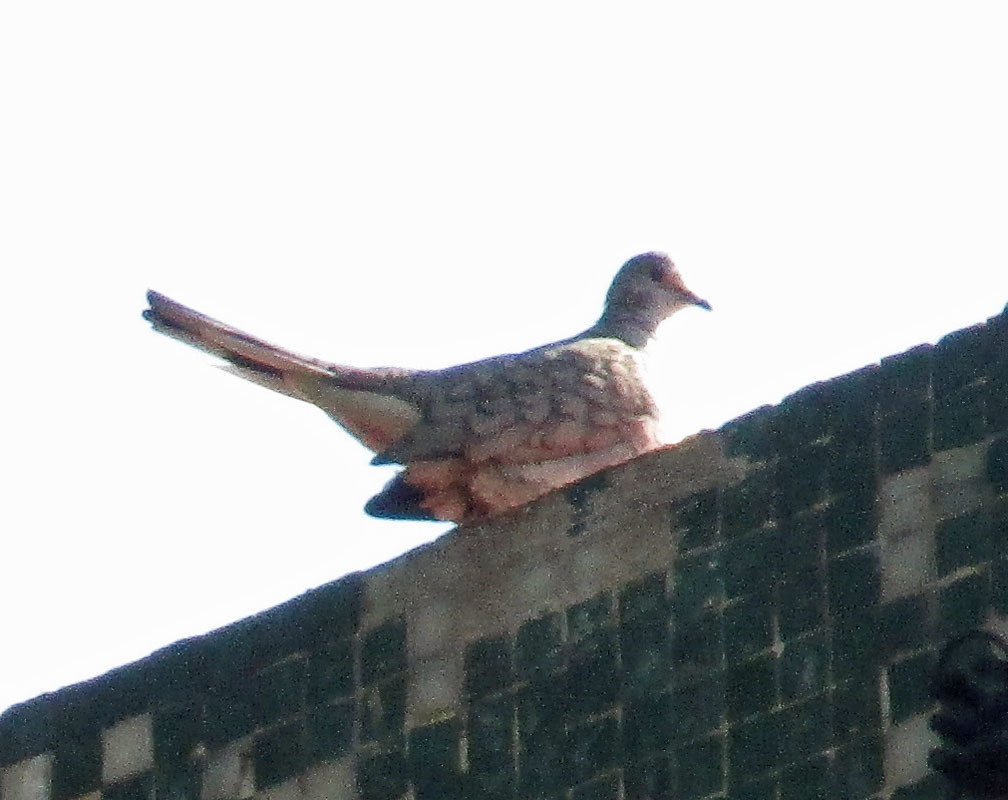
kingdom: Animalia
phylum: Chordata
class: Aves
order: Columbiformes
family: Columbidae
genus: Columbina
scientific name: Columbina inca
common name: Inca dove
